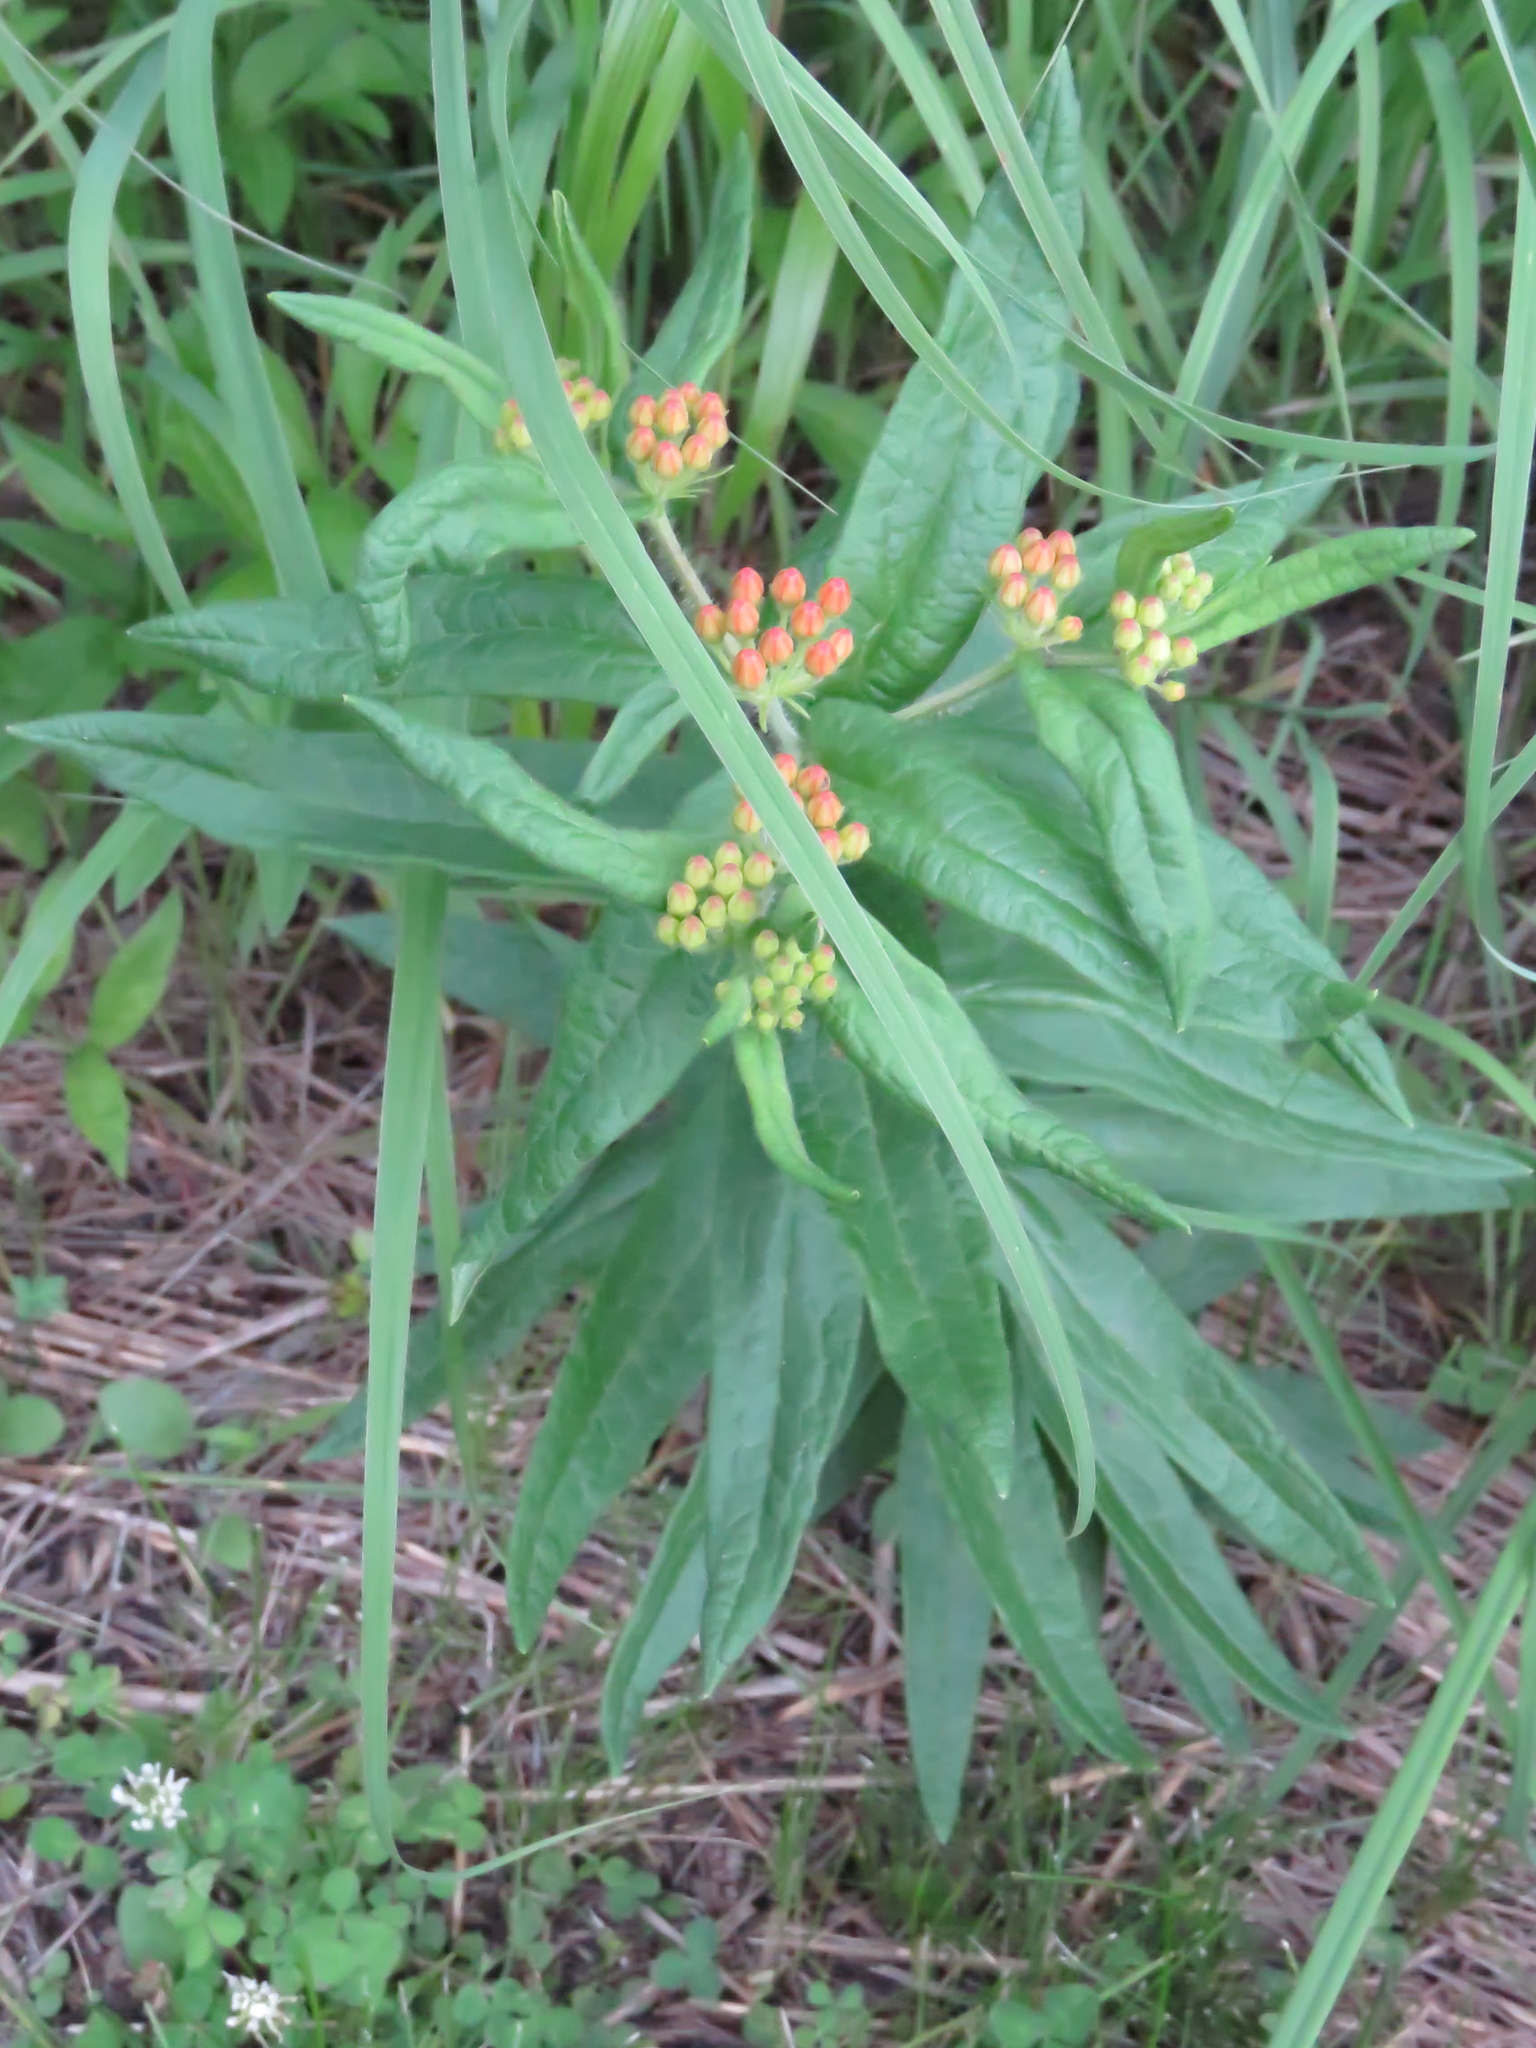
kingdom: Plantae
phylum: Tracheophyta
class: Magnoliopsida
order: Gentianales
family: Apocynaceae
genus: Asclepias
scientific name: Asclepias tuberosa
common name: Butterfly milkweed
